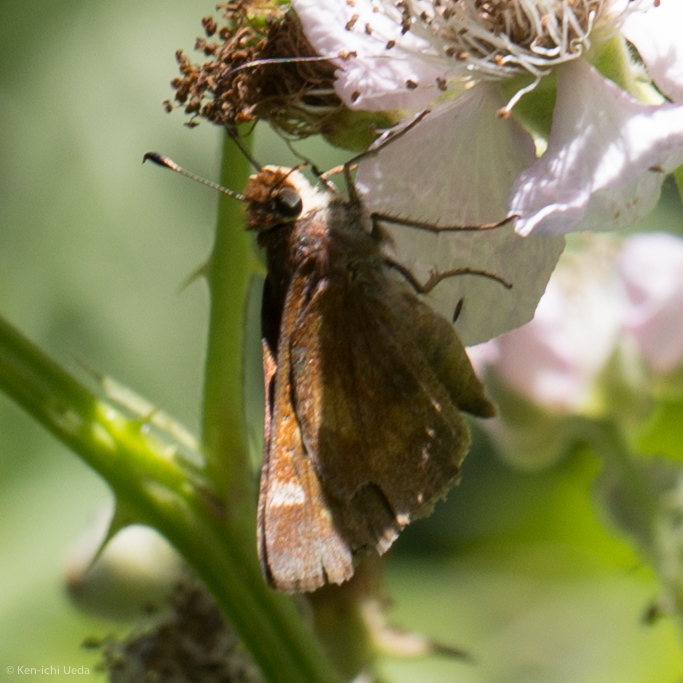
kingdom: Animalia
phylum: Arthropoda
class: Insecta
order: Lepidoptera
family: Hesperiidae
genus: Lon
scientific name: Lon melane
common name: Umber skipper
